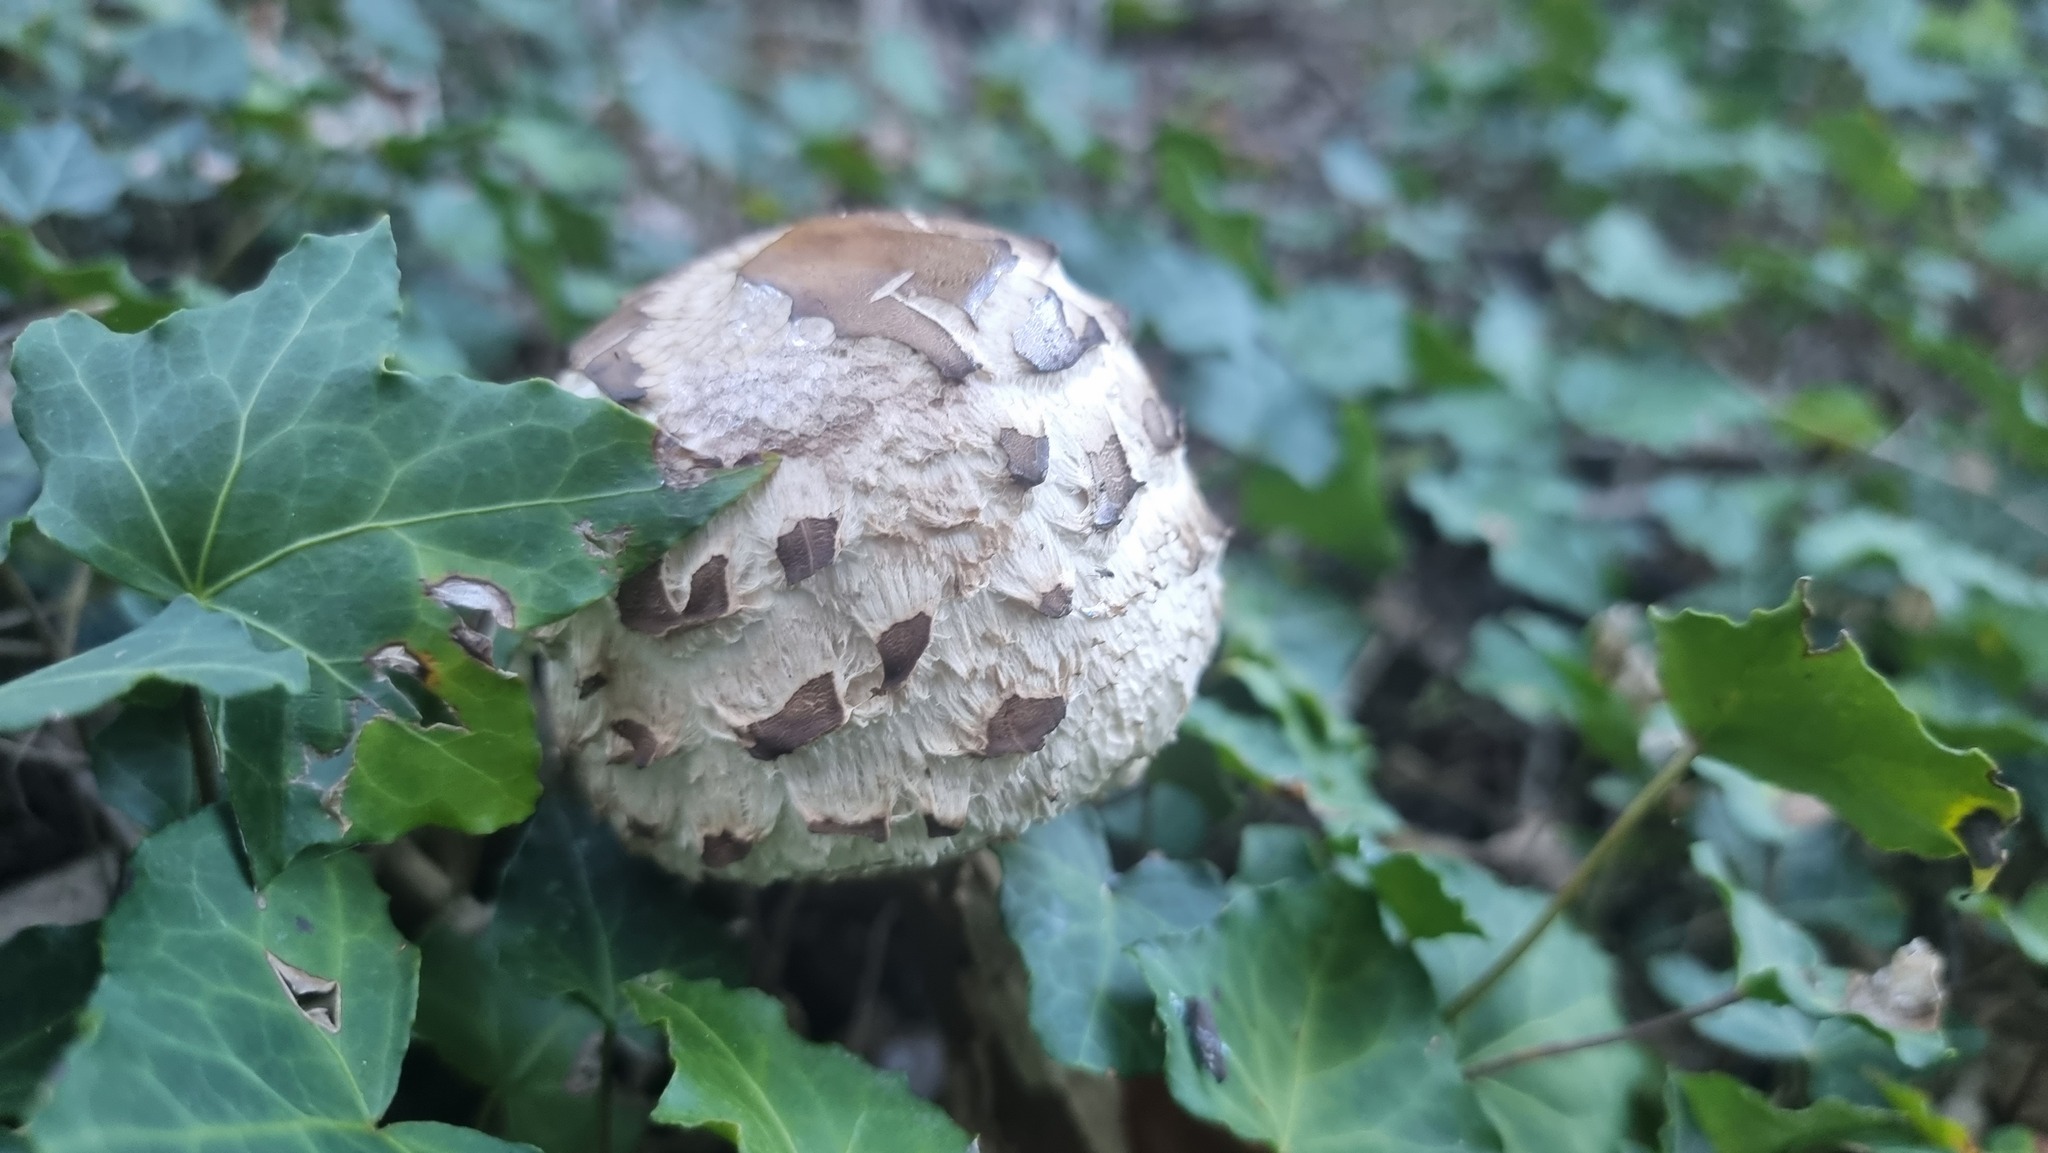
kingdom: Fungi
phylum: Basidiomycota
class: Agaricomycetes
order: Agaricales
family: Agaricaceae
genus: Macrolepiota
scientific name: Macrolepiota procera
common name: Parasol
